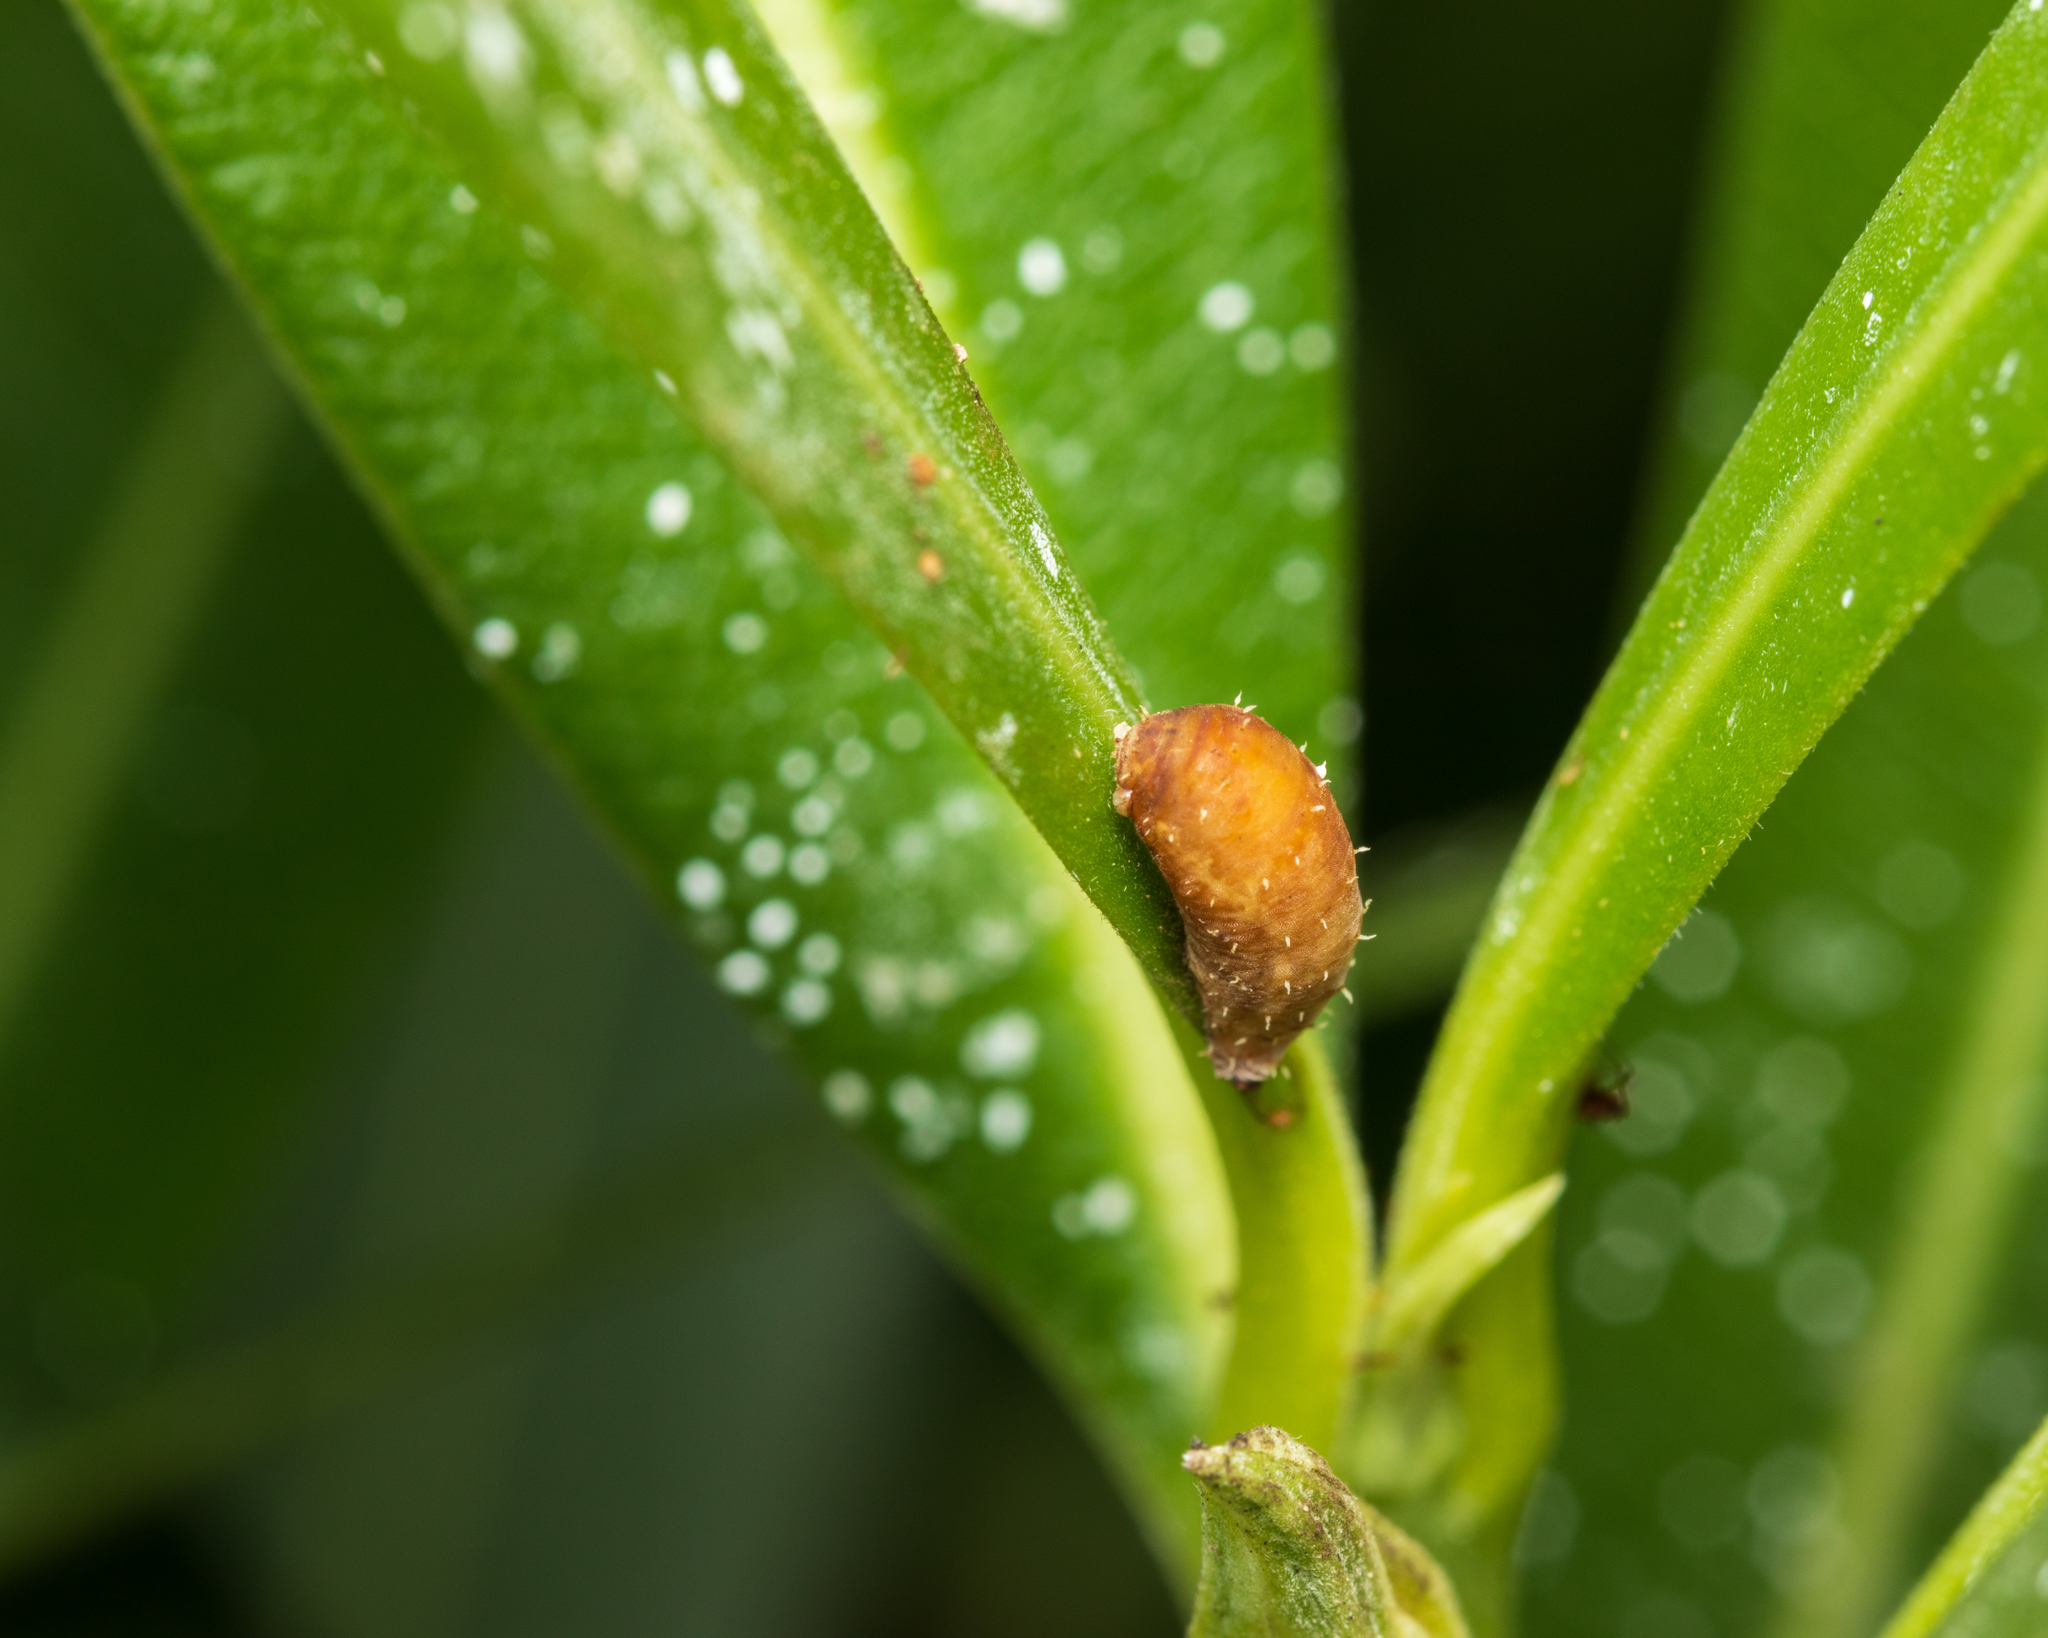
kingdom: Animalia
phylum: Arthropoda
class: Insecta
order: Diptera
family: Syrphidae
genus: Dioprosopa
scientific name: Dioprosopa clavatus
